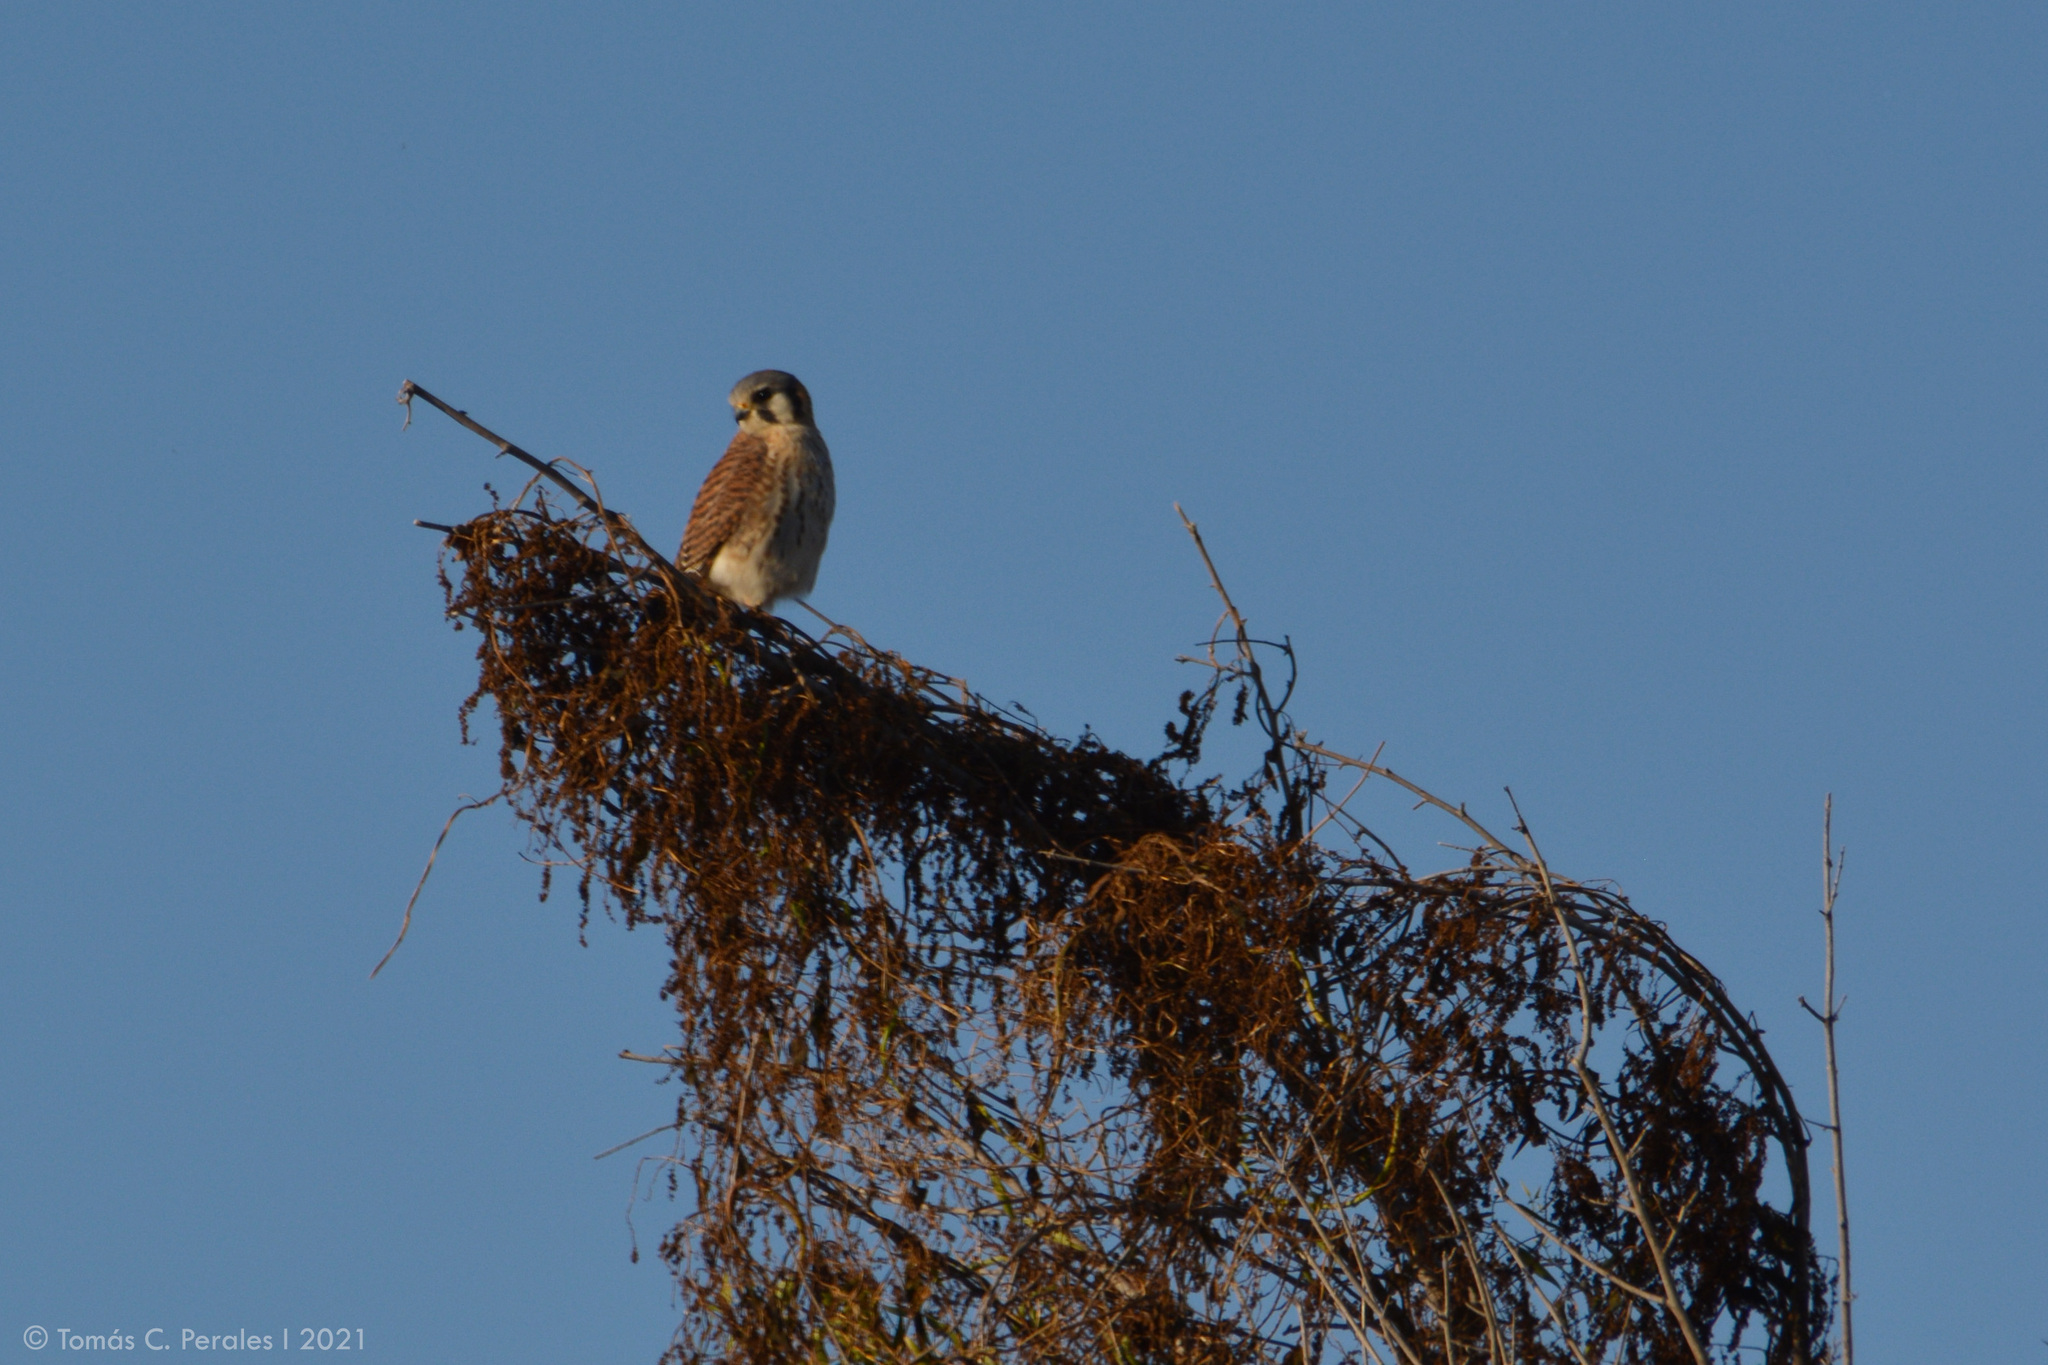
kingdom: Animalia
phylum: Chordata
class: Aves
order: Falconiformes
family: Falconidae
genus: Falco
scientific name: Falco sparverius
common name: American kestrel
